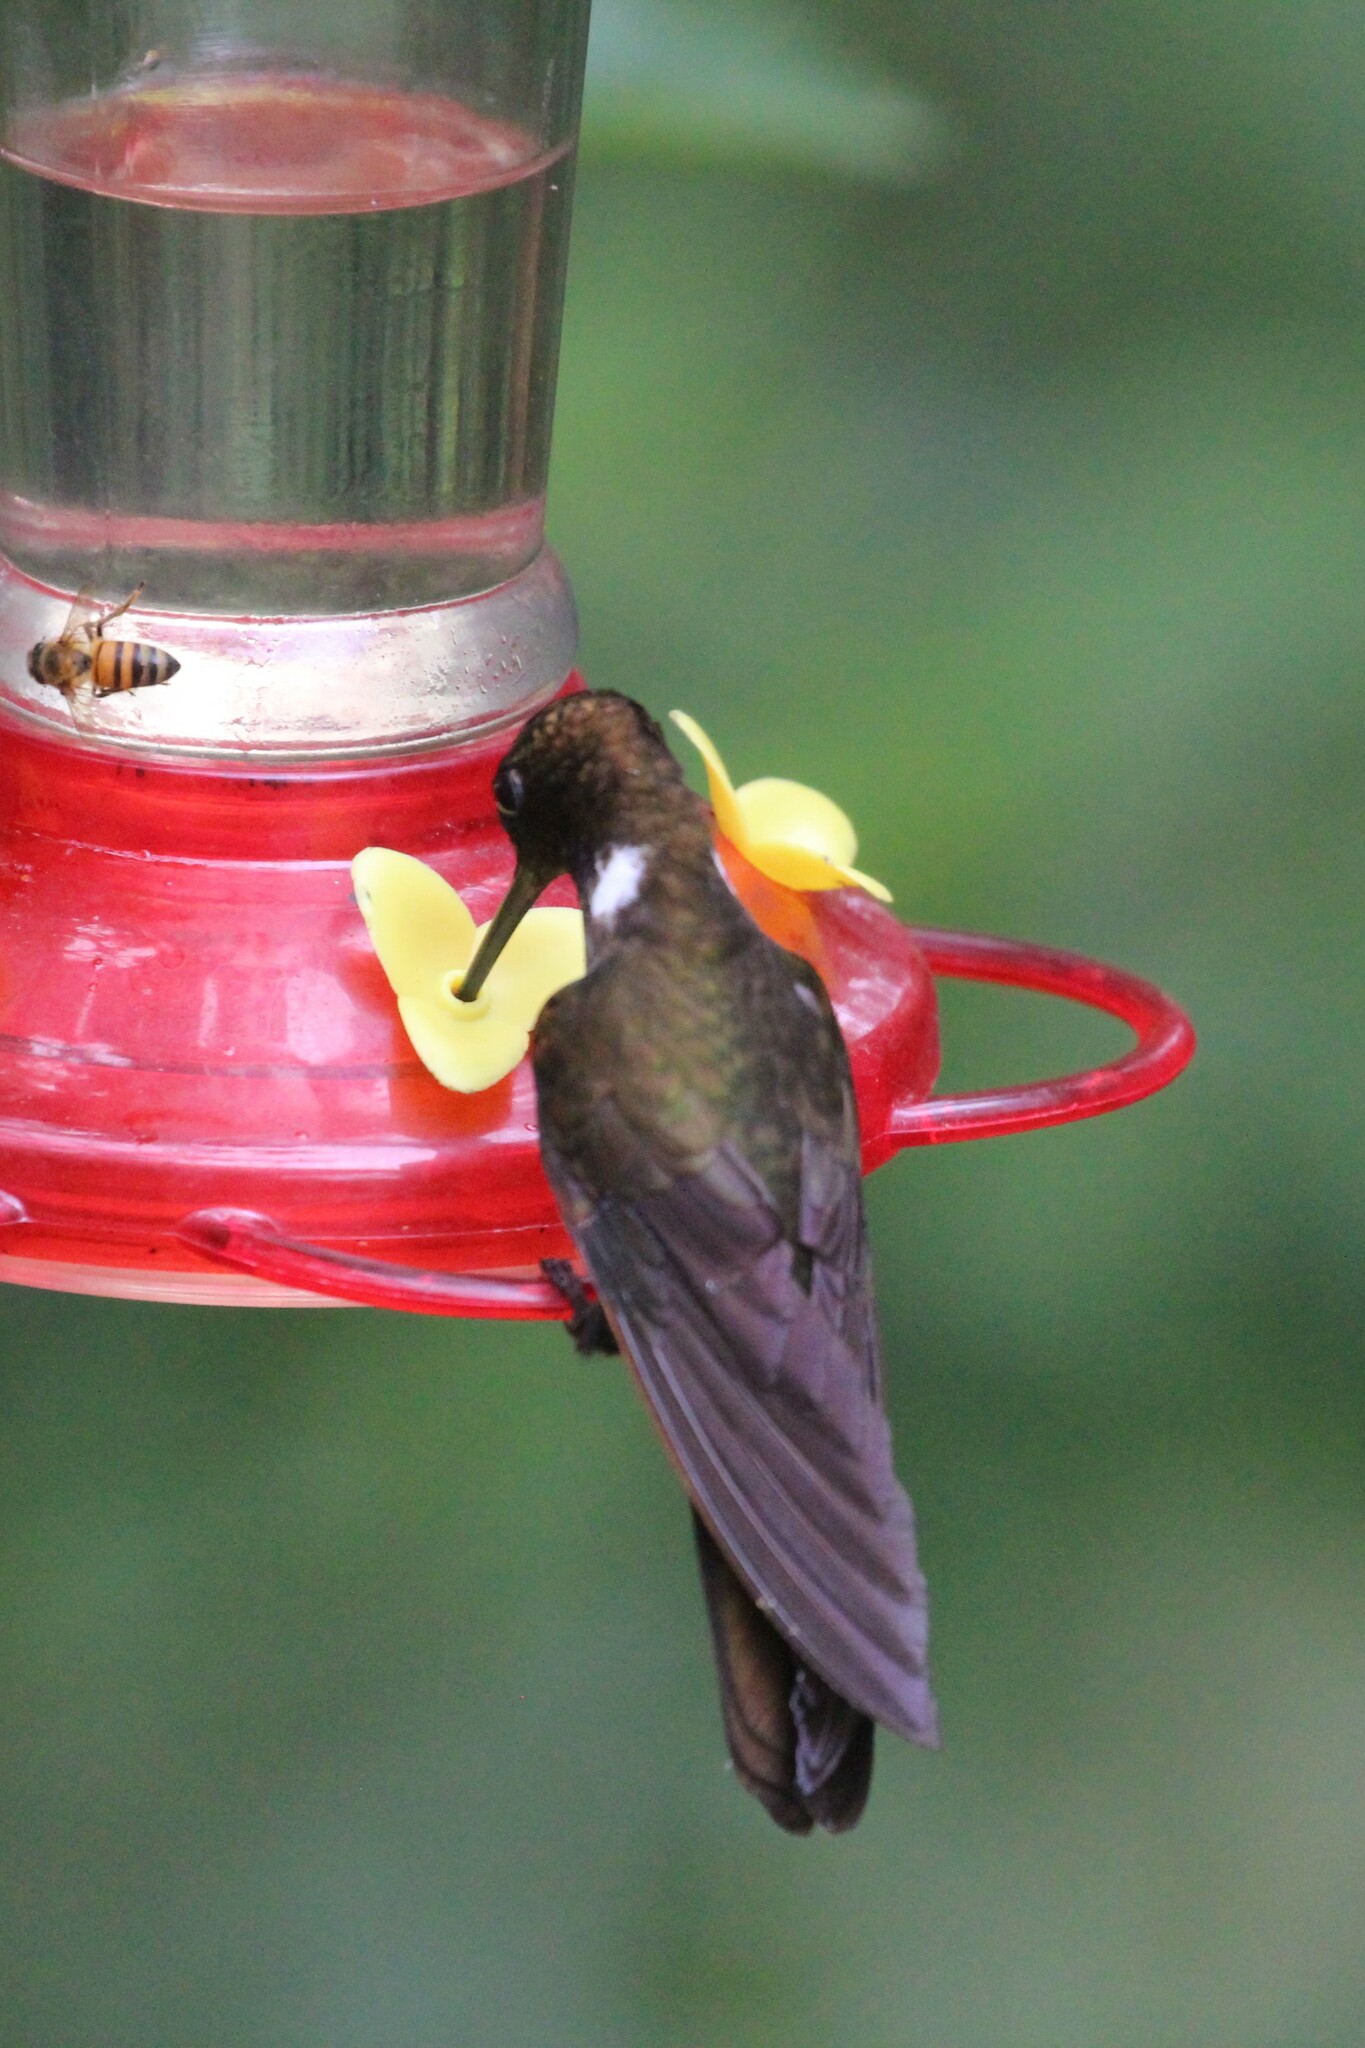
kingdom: Animalia
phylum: Chordata
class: Aves
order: Apodiformes
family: Trochilidae
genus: Coeligena
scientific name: Coeligena wilsoni
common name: Brown inca
